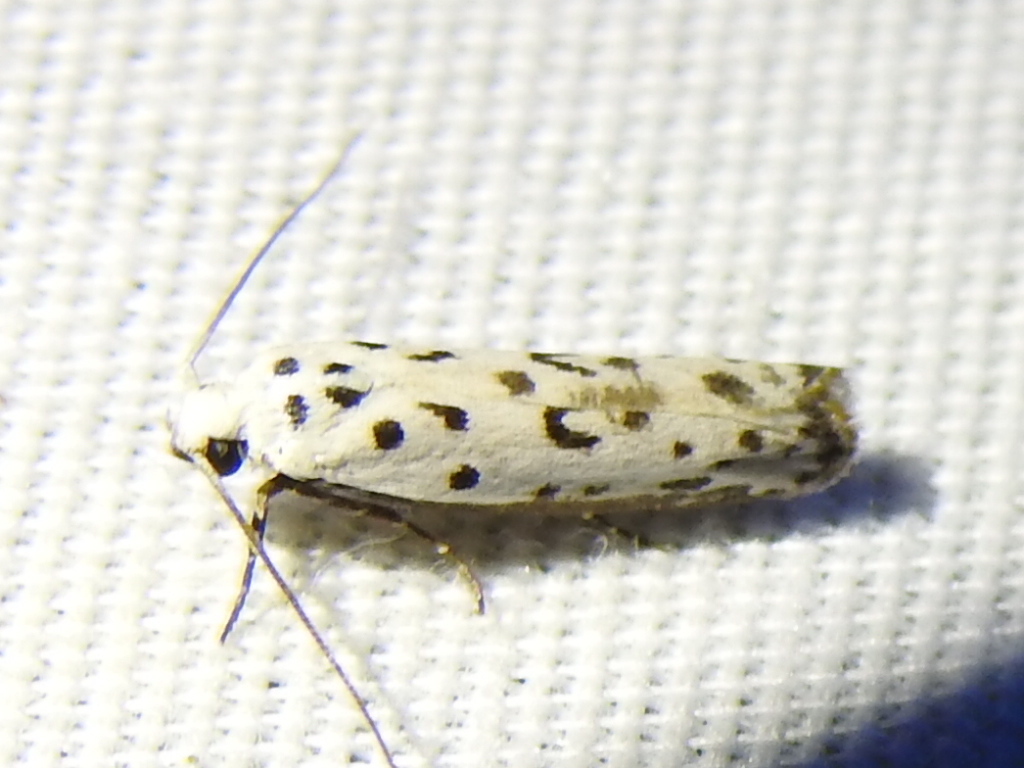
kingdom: Animalia
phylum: Arthropoda
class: Insecta
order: Lepidoptera
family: Ethmiidae
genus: Ethmia
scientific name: Ethmia bittenella
